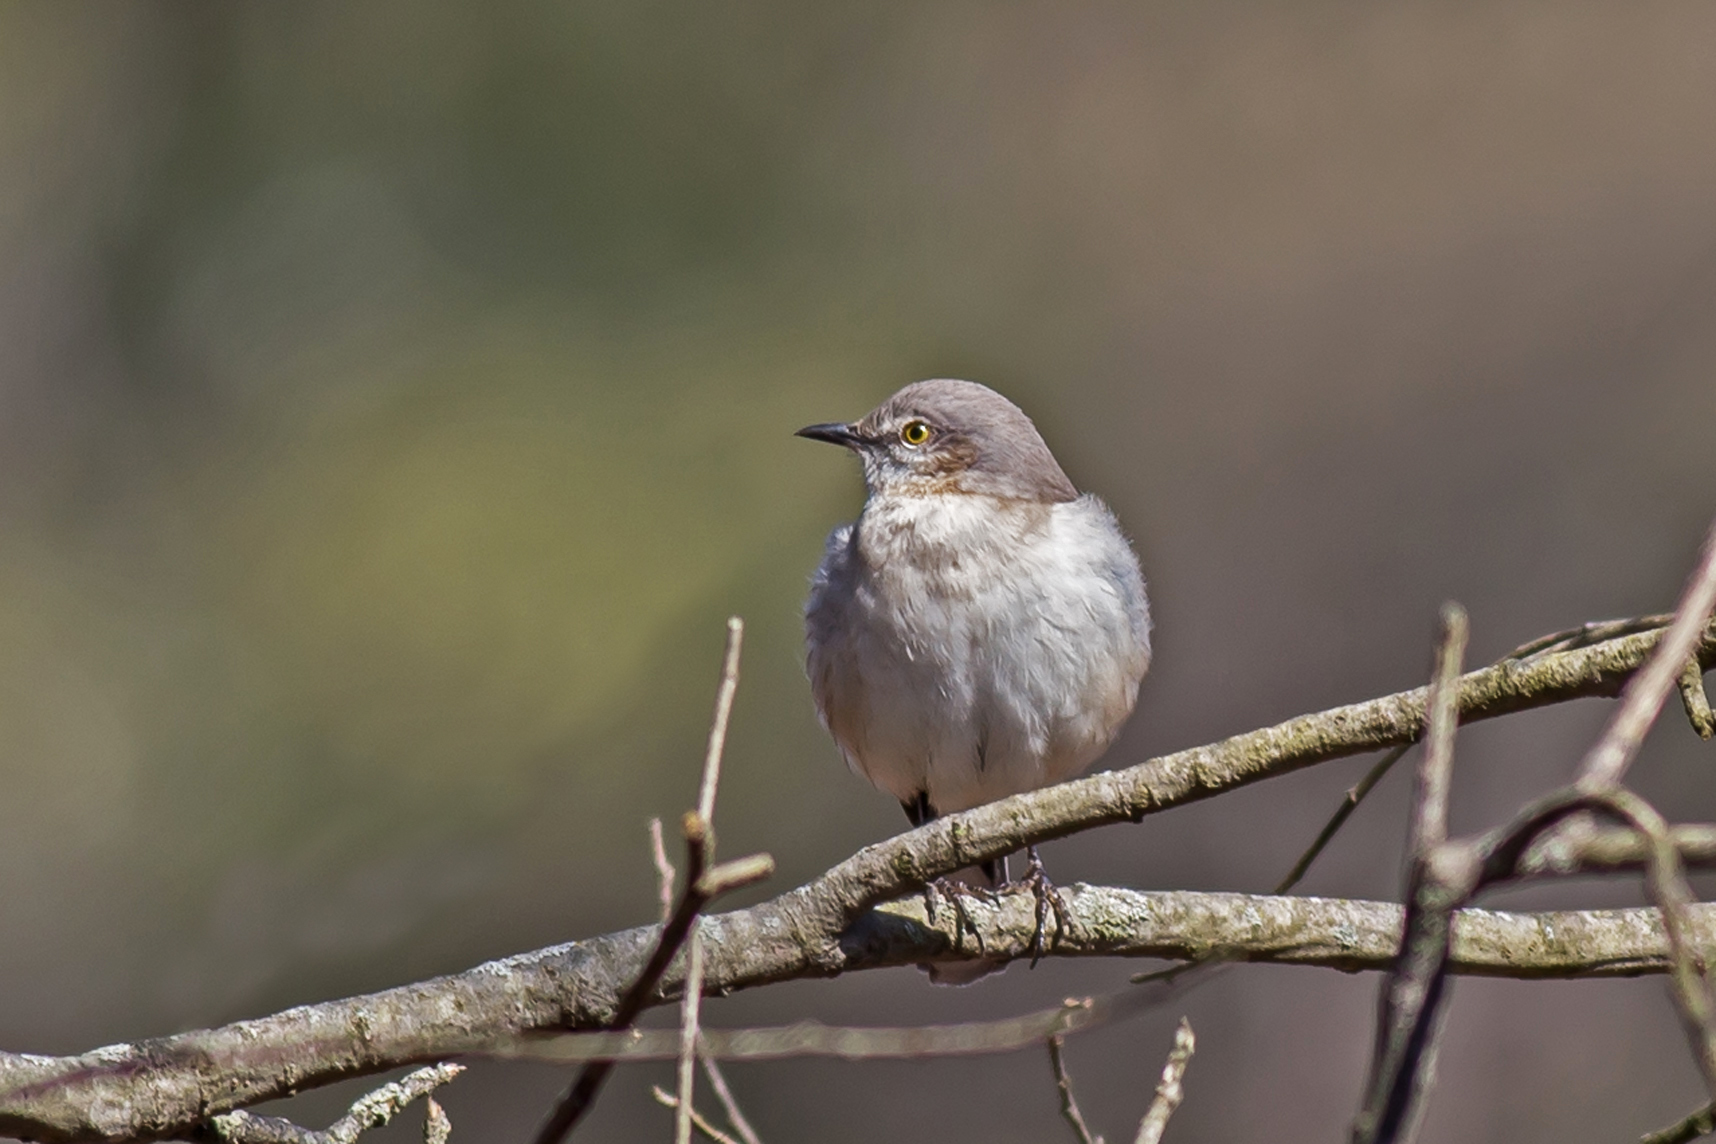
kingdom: Animalia
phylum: Chordata
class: Aves
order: Passeriformes
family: Mimidae
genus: Mimus
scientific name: Mimus polyglottos
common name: Northern mockingbird
